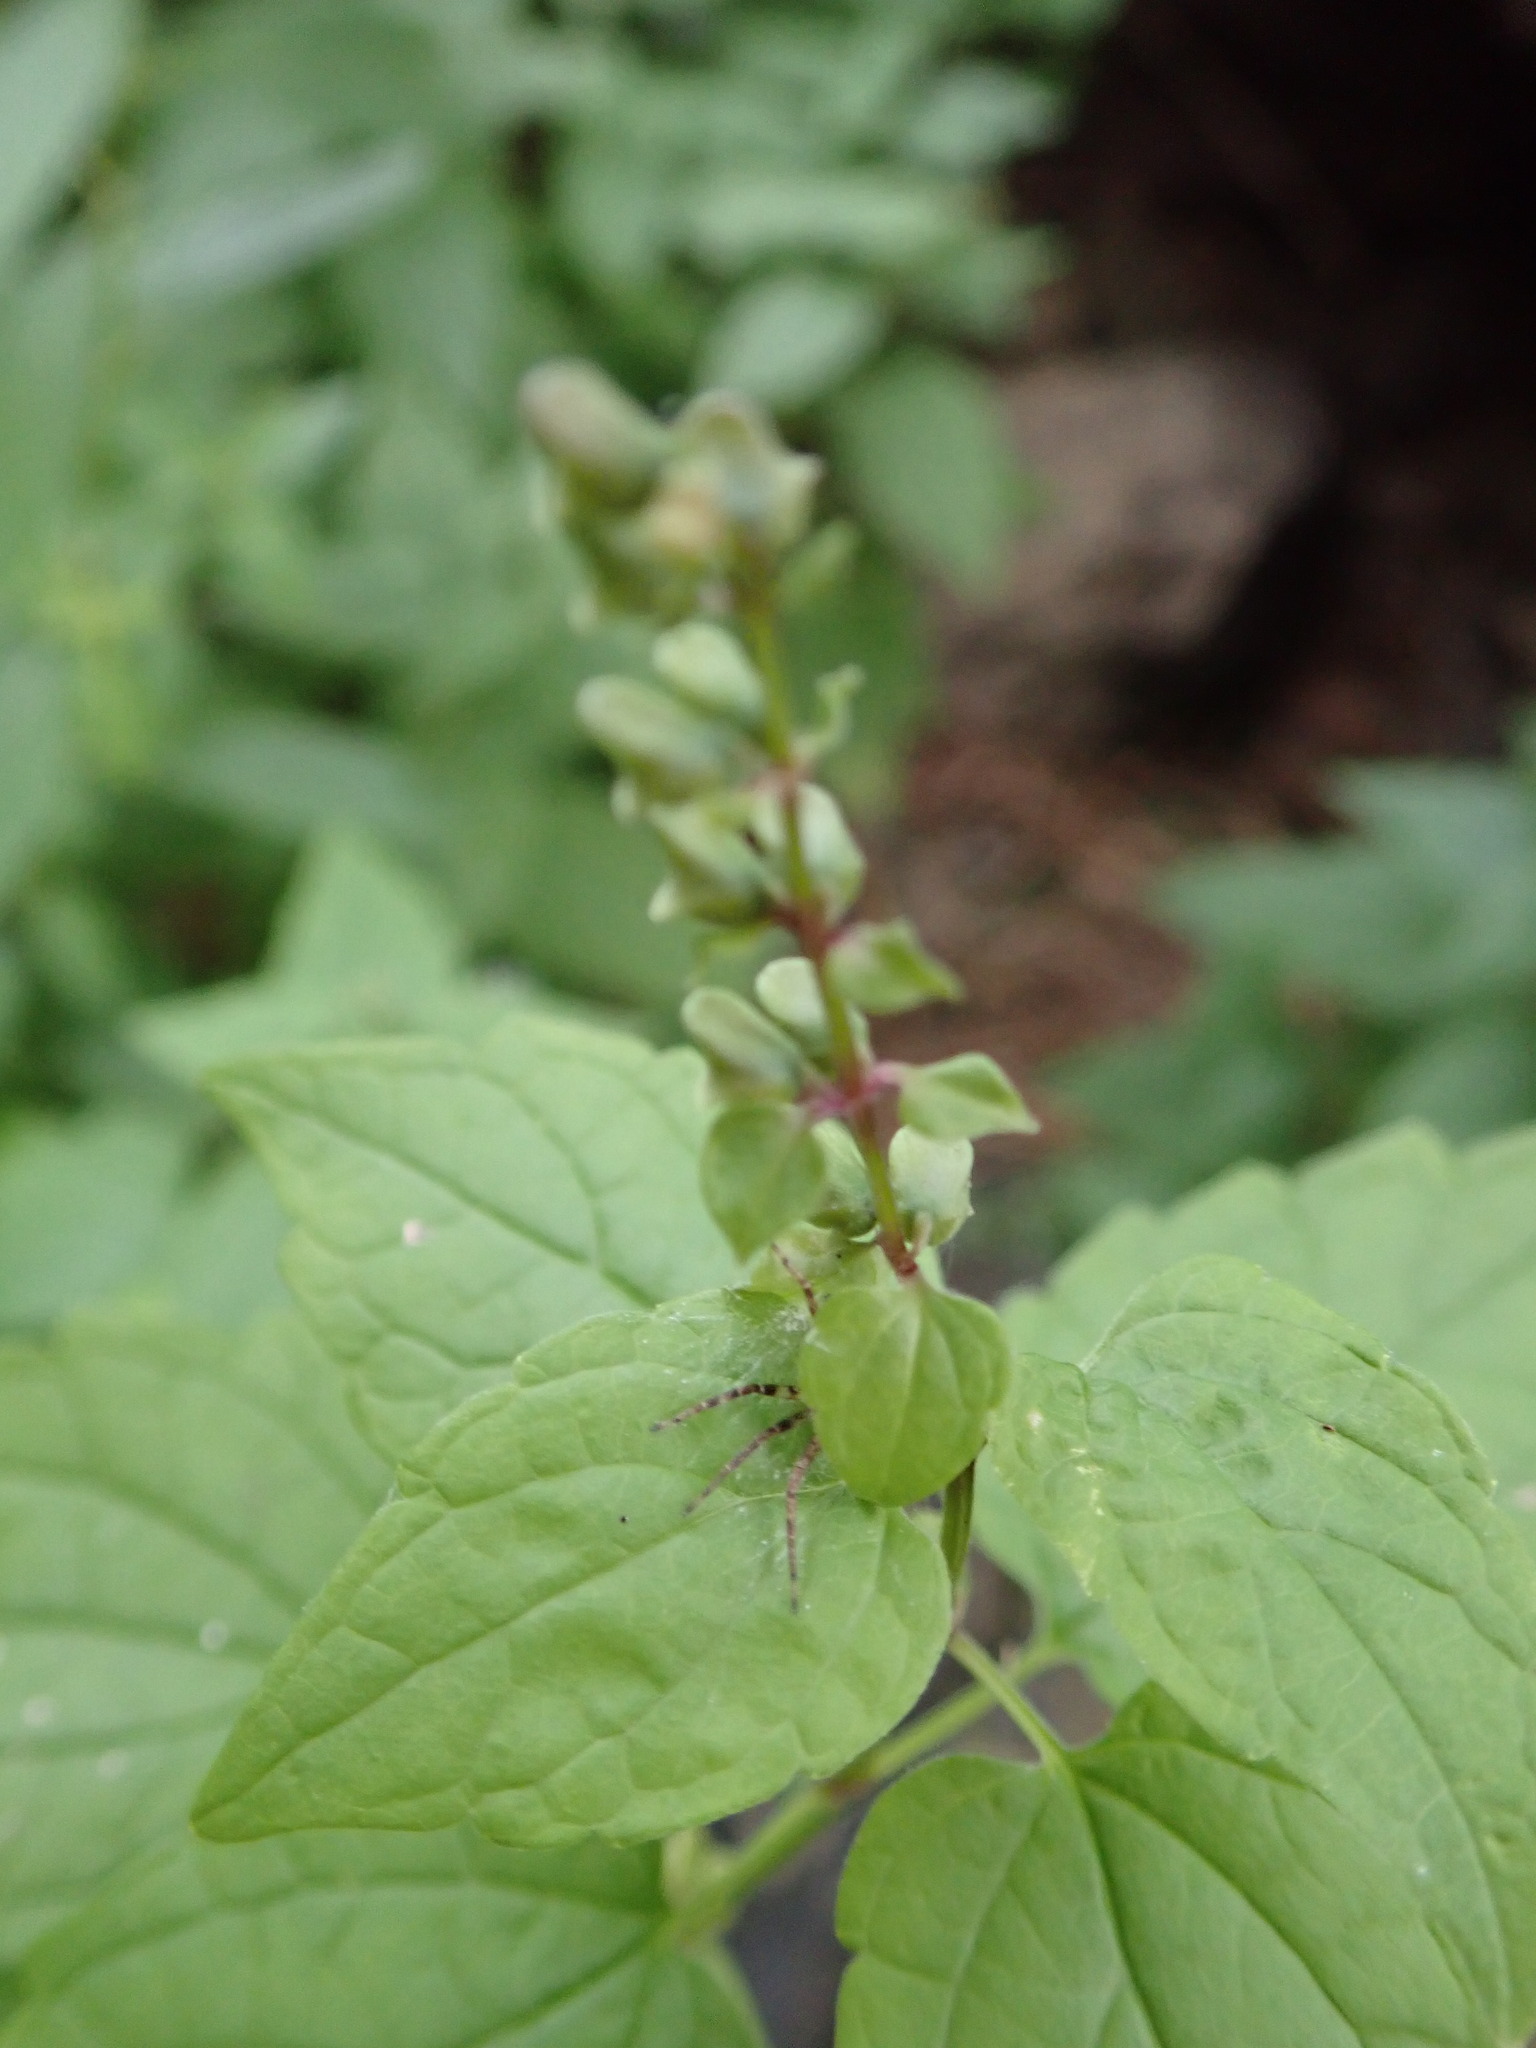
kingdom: Plantae
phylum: Tracheophyta
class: Magnoliopsida
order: Lamiales
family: Lamiaceae
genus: Scutellaria
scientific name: Scutellaria lateriflora
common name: Blue skullcap
